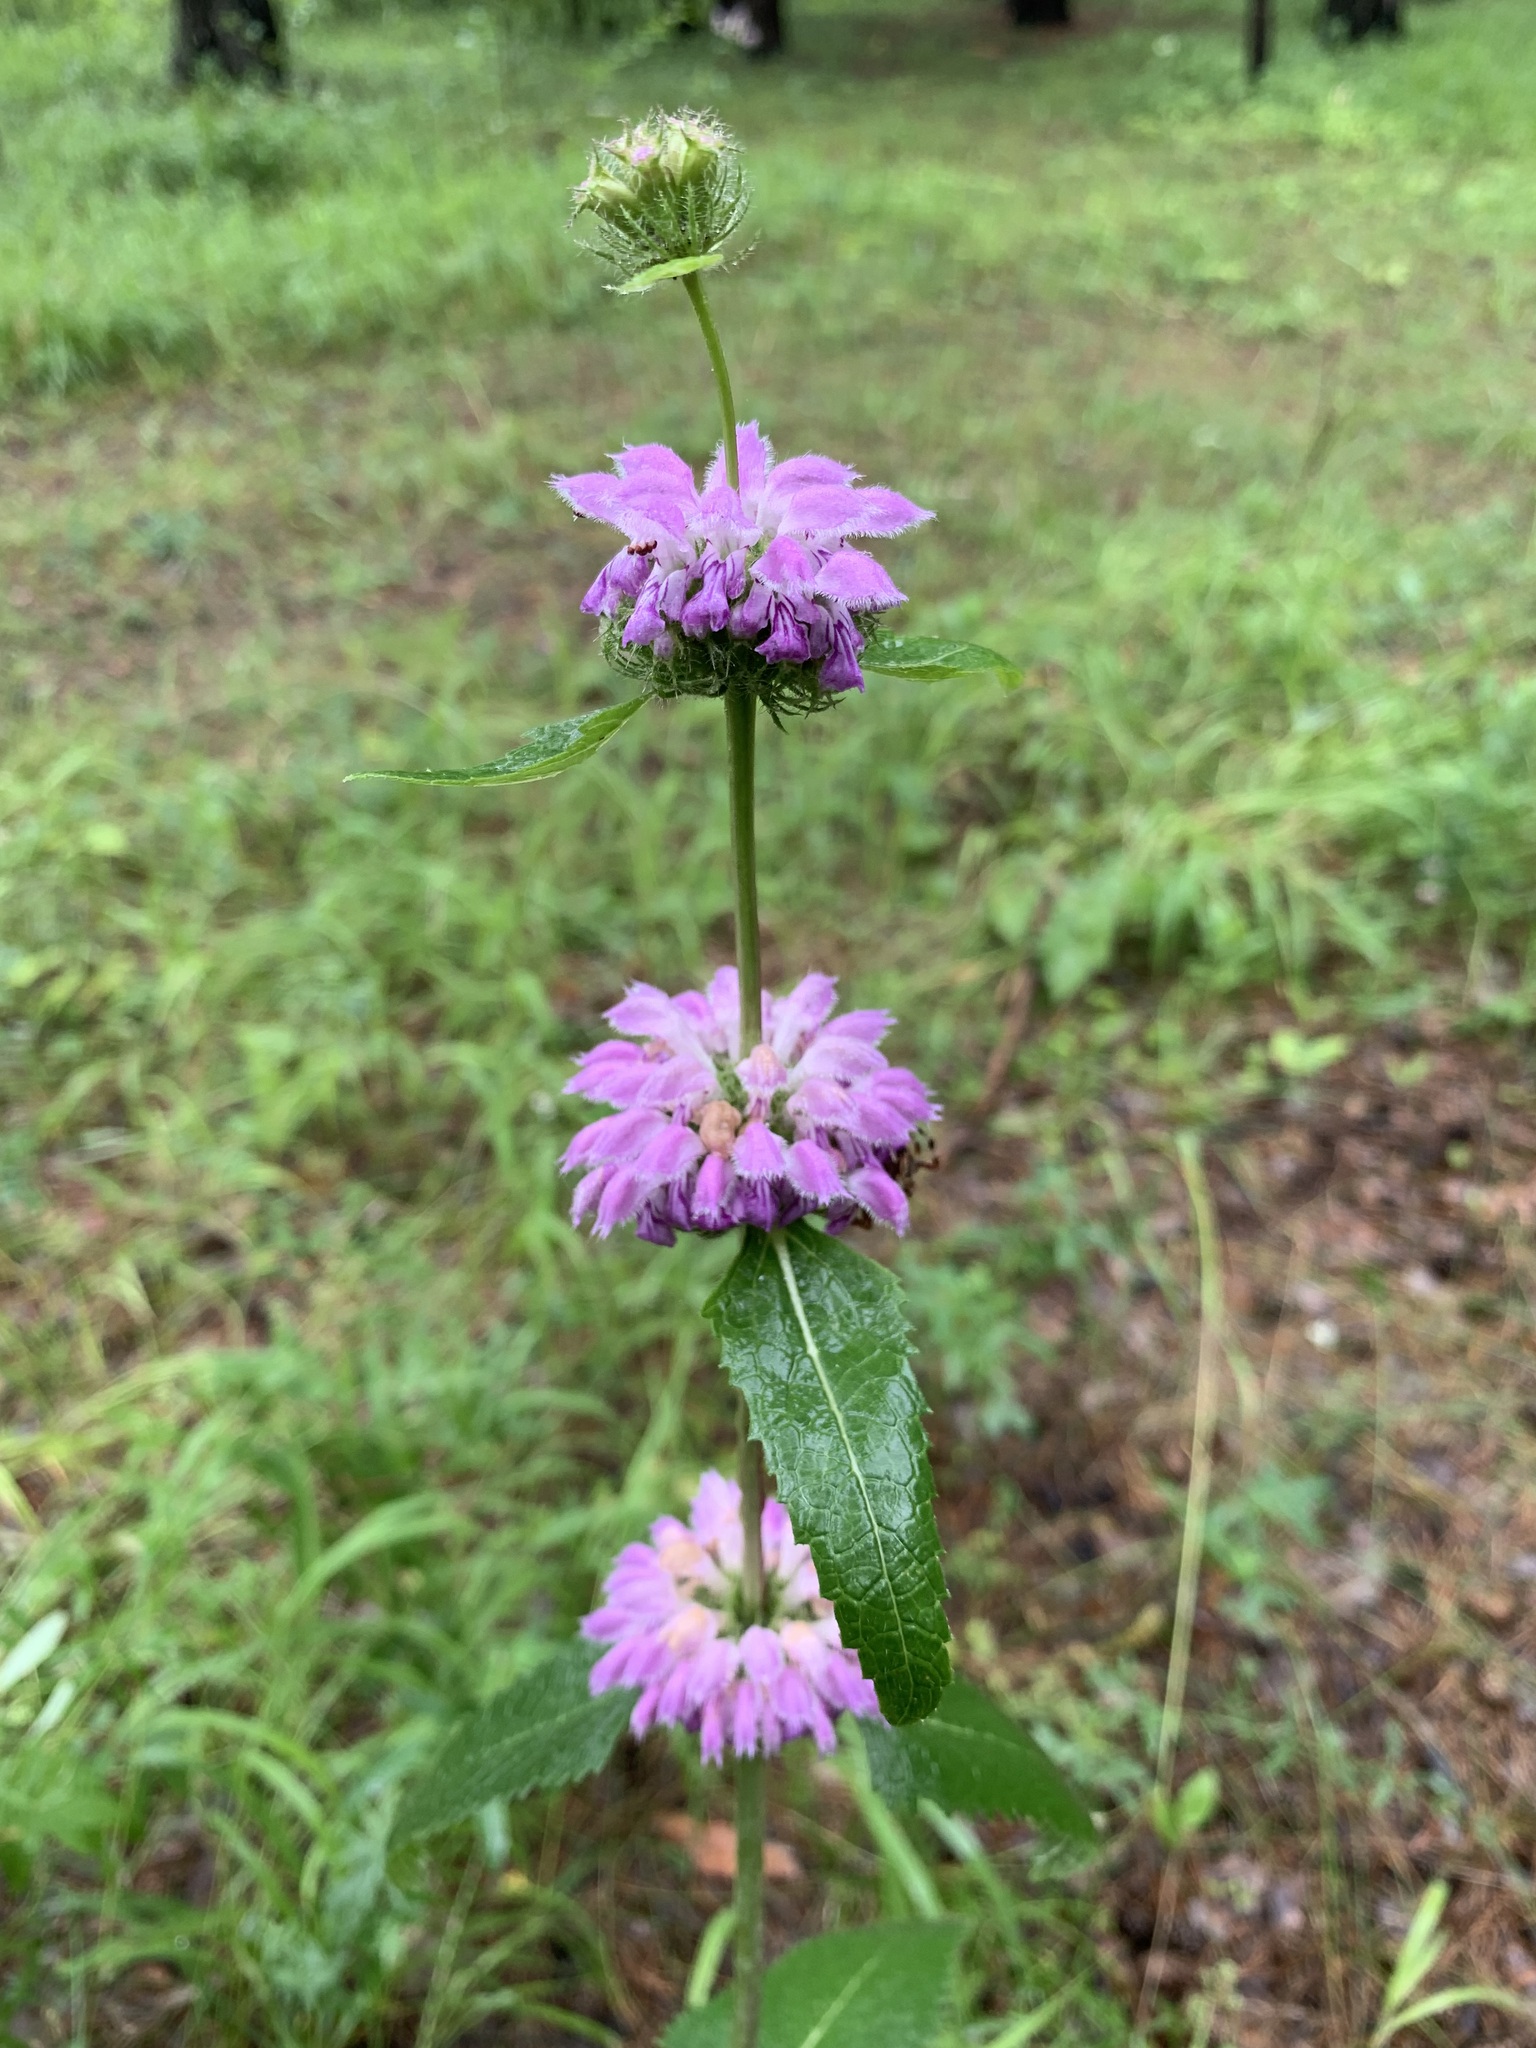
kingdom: Plantae
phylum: Tracheophyta
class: Magnoliopsida
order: Lamiales
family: Lamiaceae
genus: Phlomoides
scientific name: Phlomoides tuberosa
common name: Tuberous jerusalem sage
